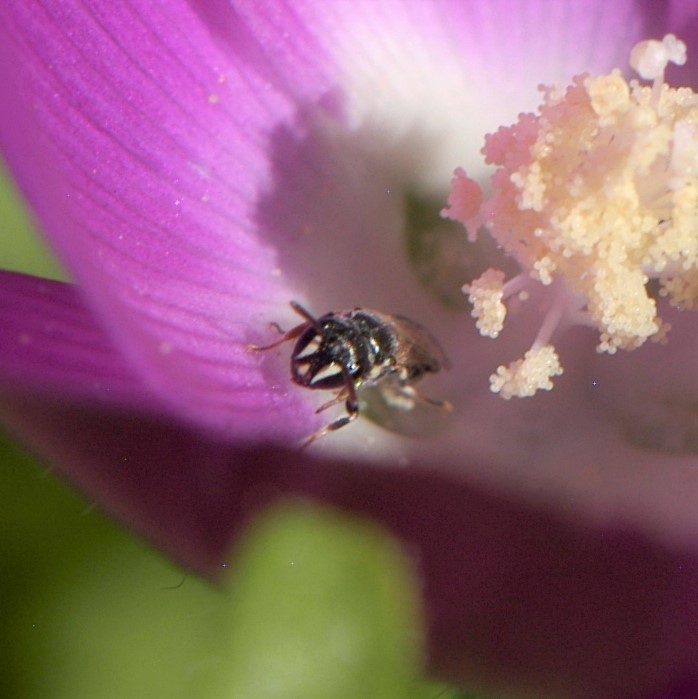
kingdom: Animalia
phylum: Arthropoda
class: Insecta
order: Hymenoptera
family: Colletidae
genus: Hylaeus
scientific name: Hylaeus
